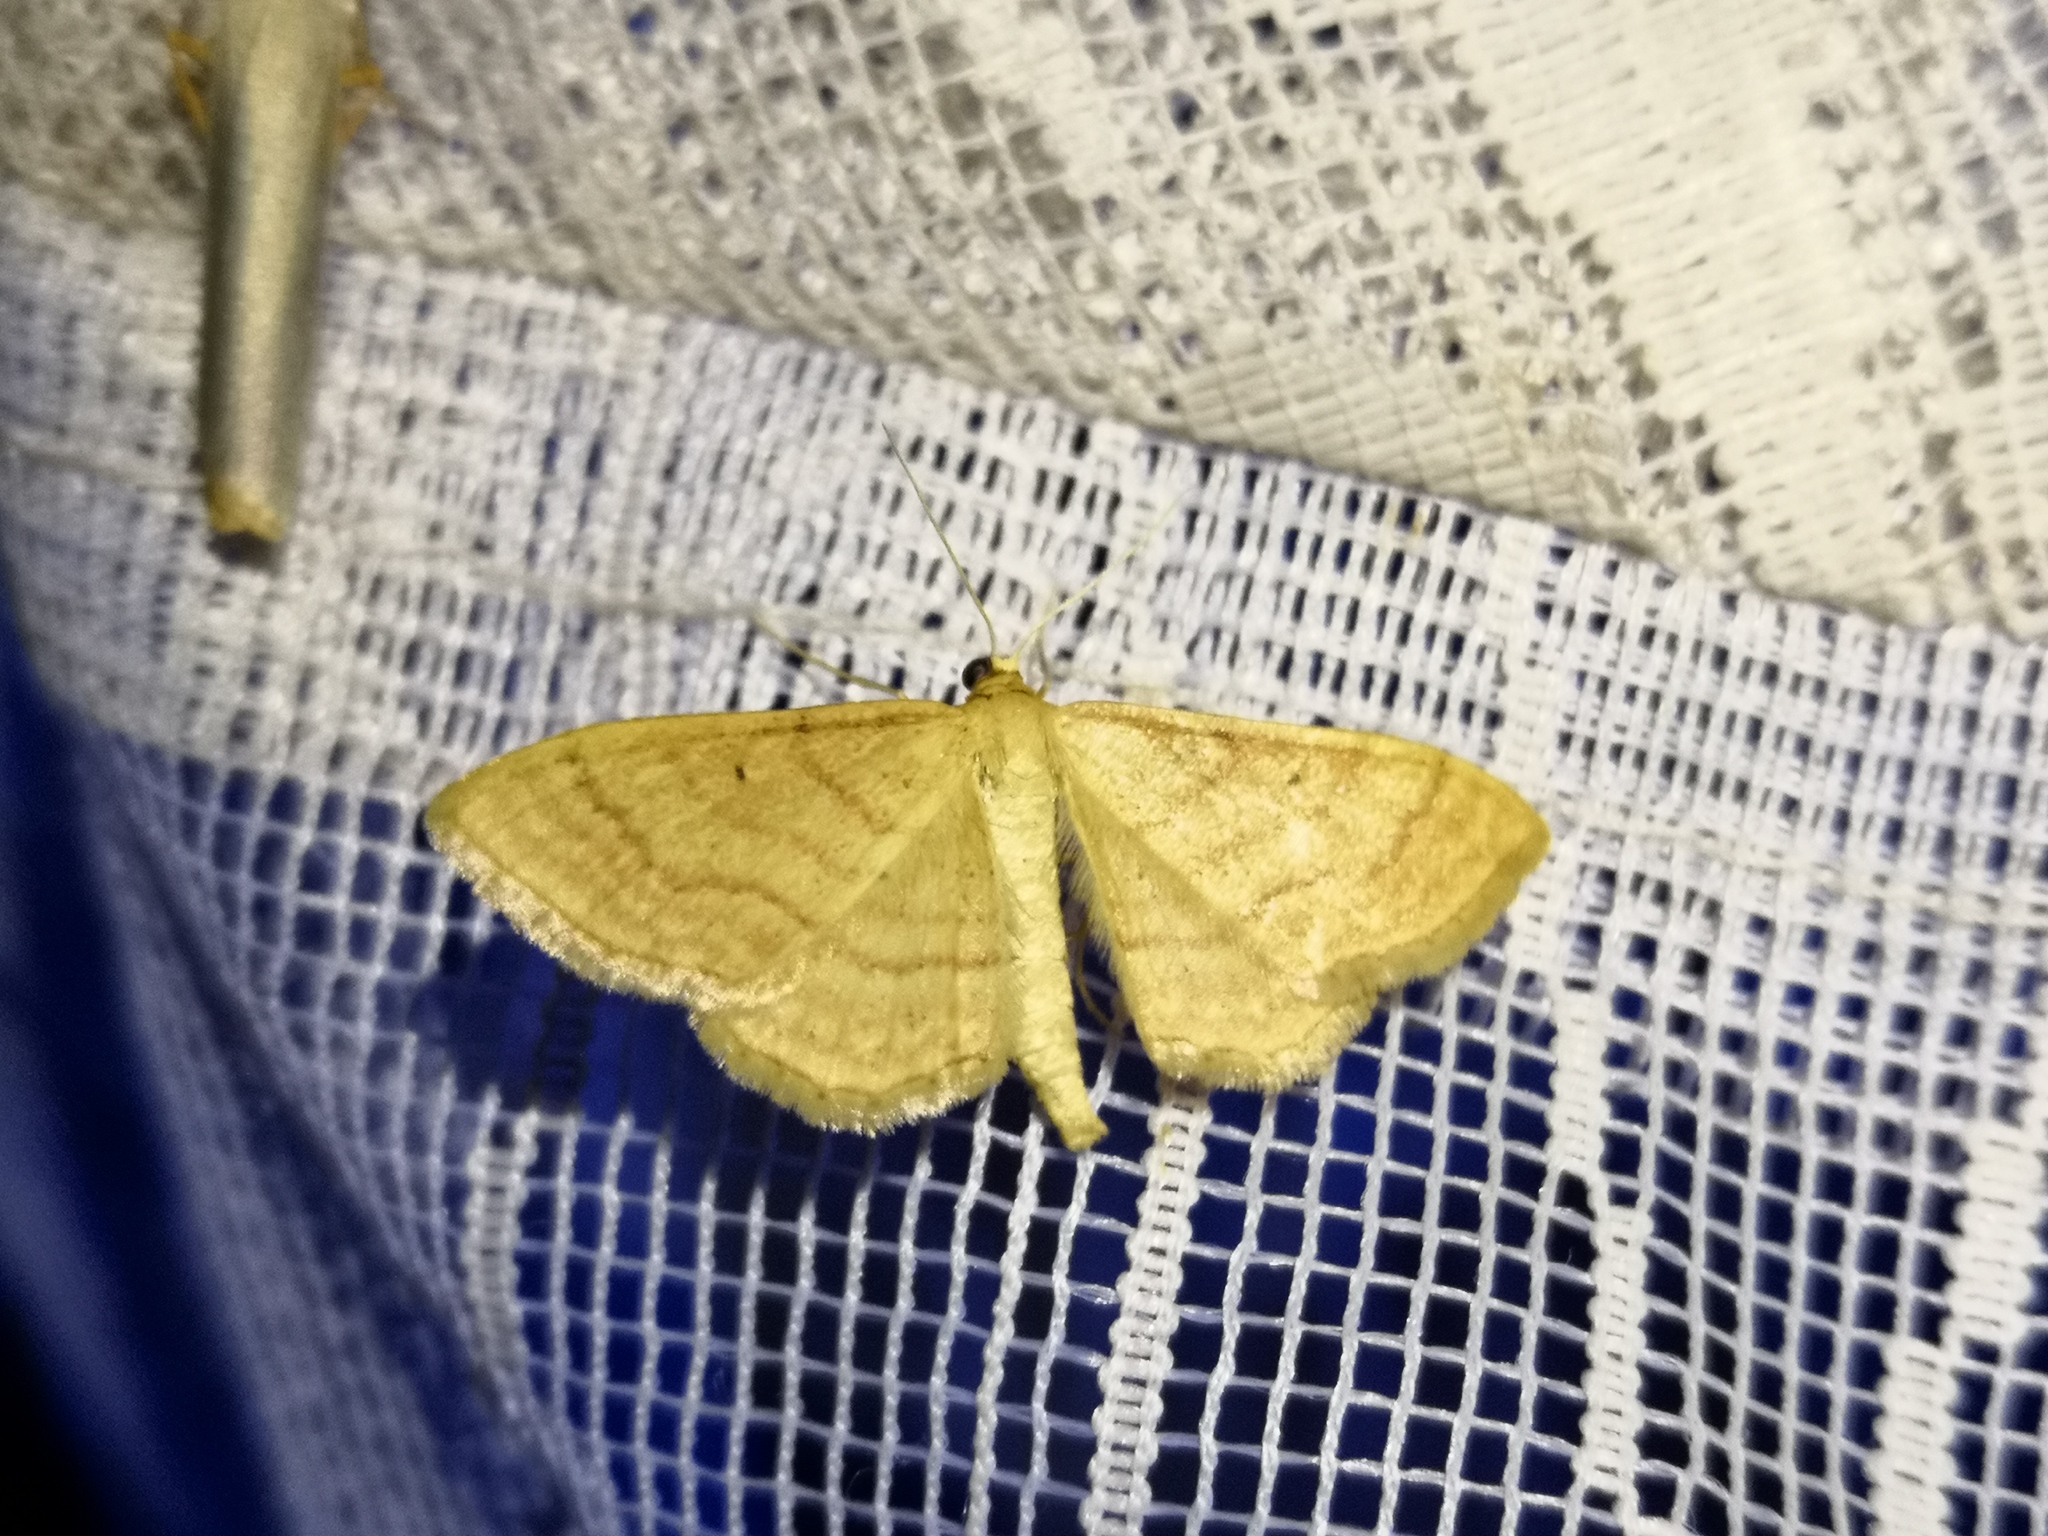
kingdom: Animalia
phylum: Arthropoda
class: Insecta
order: Lepidoptera
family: Geometridae
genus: Idaea
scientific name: Idaea rufaria
